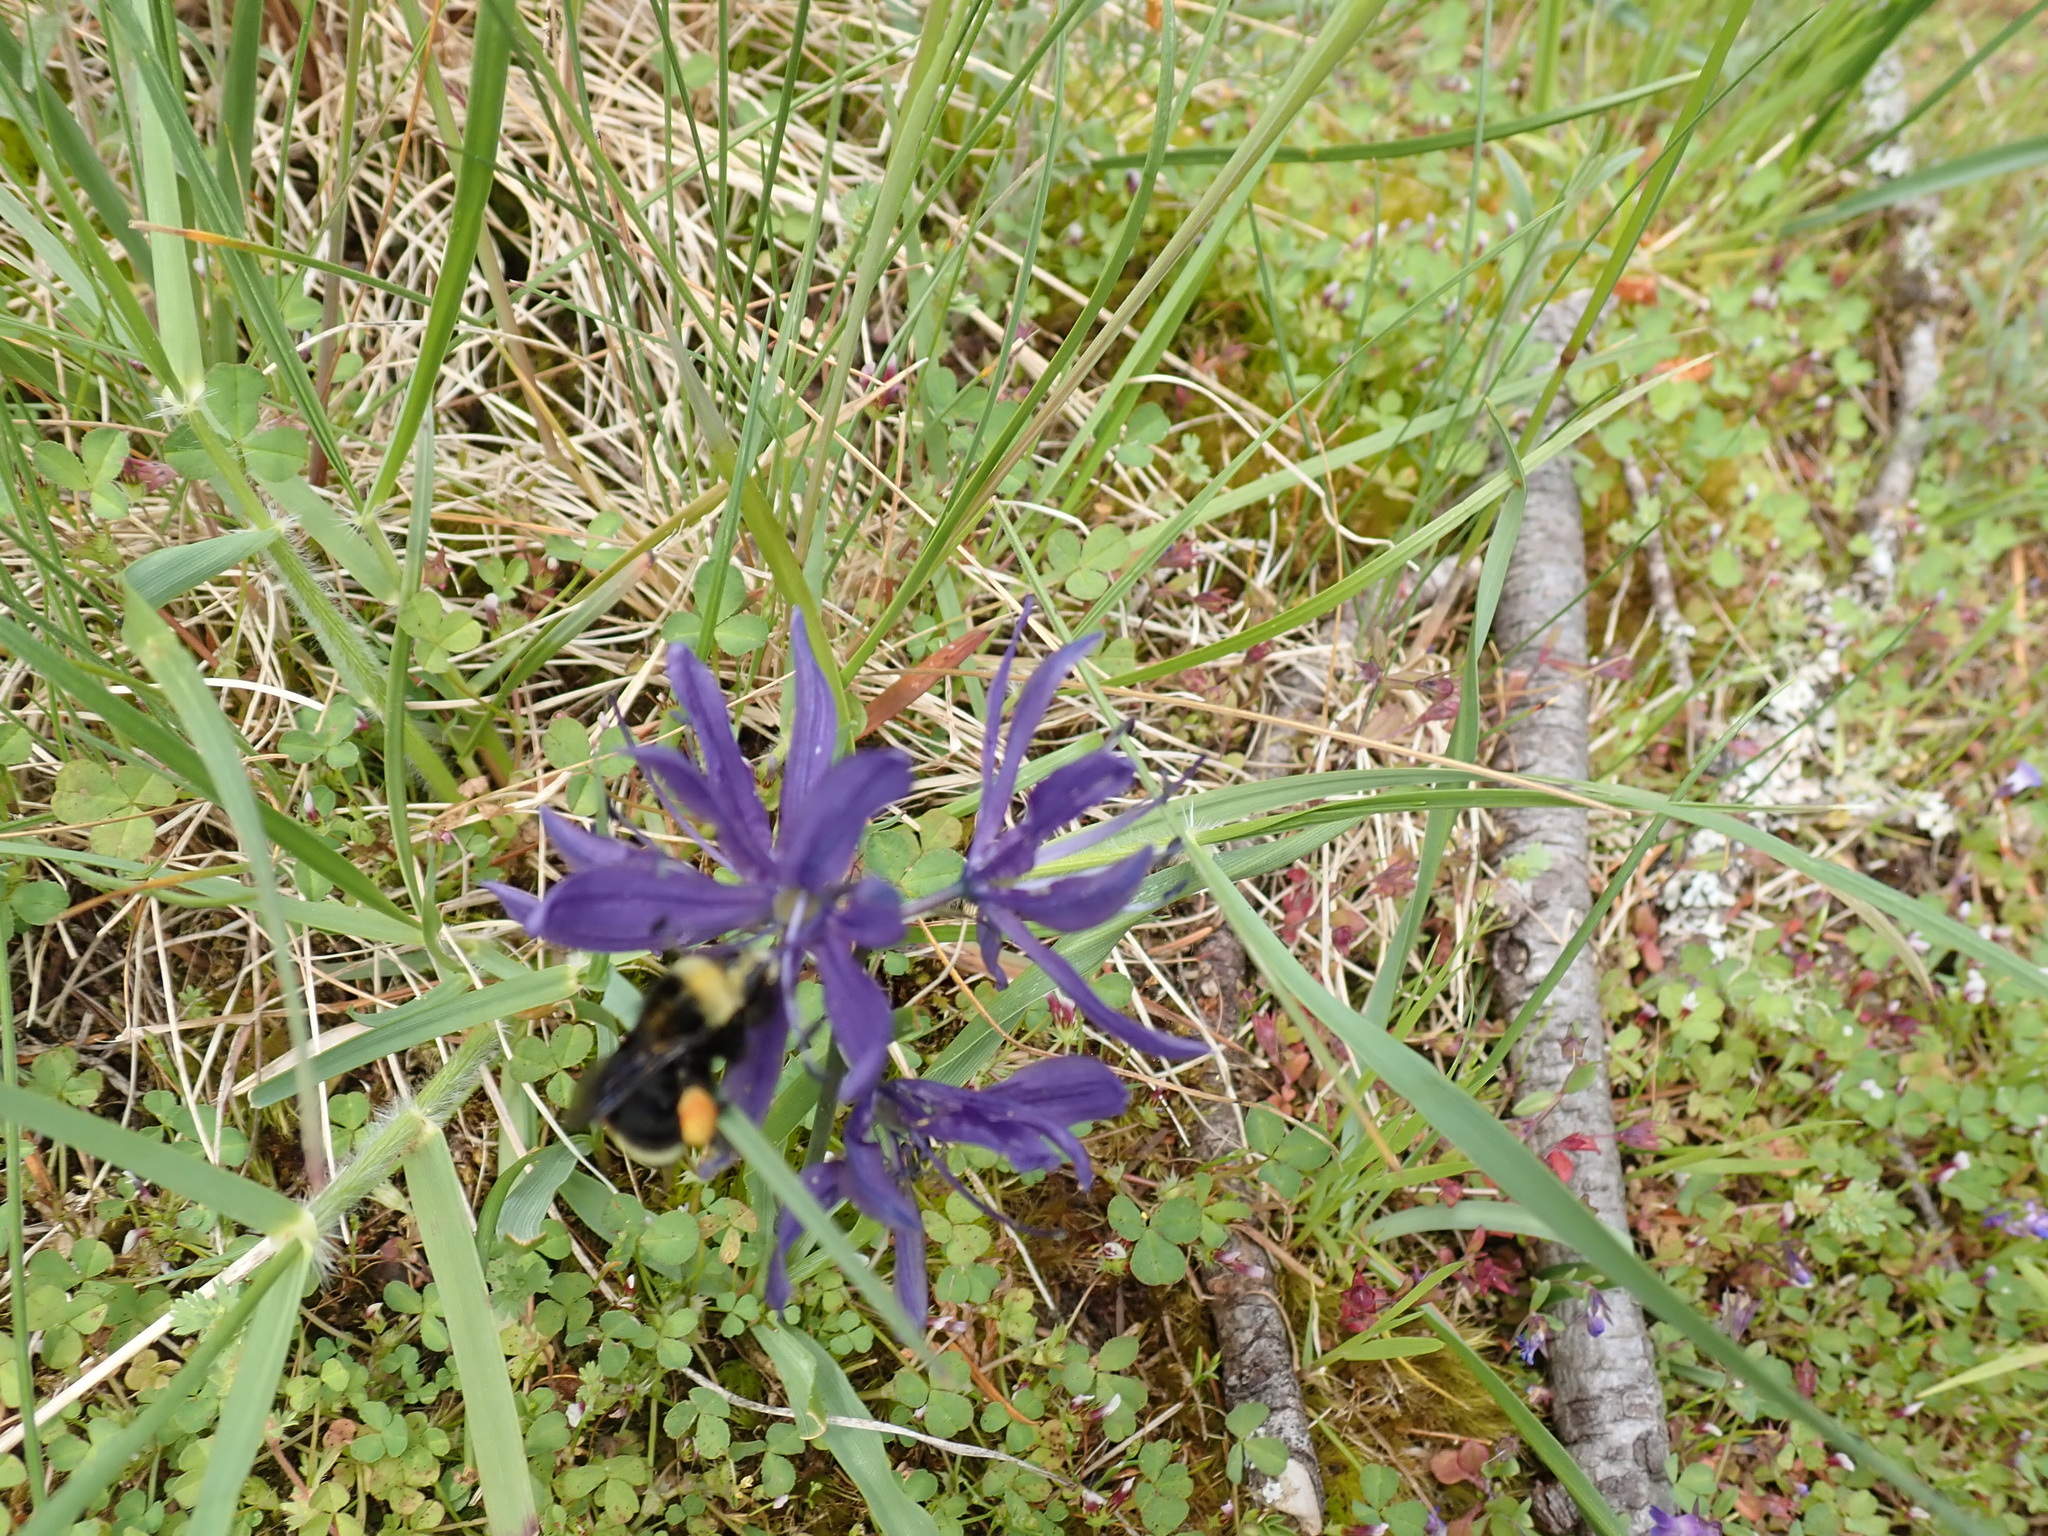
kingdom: Animalia
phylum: Arthropoda
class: Insecta
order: Hymenoptera
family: Apidae
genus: Bombus
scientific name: Bombus vosnesenskii
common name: Vosnesensky bumble bee
